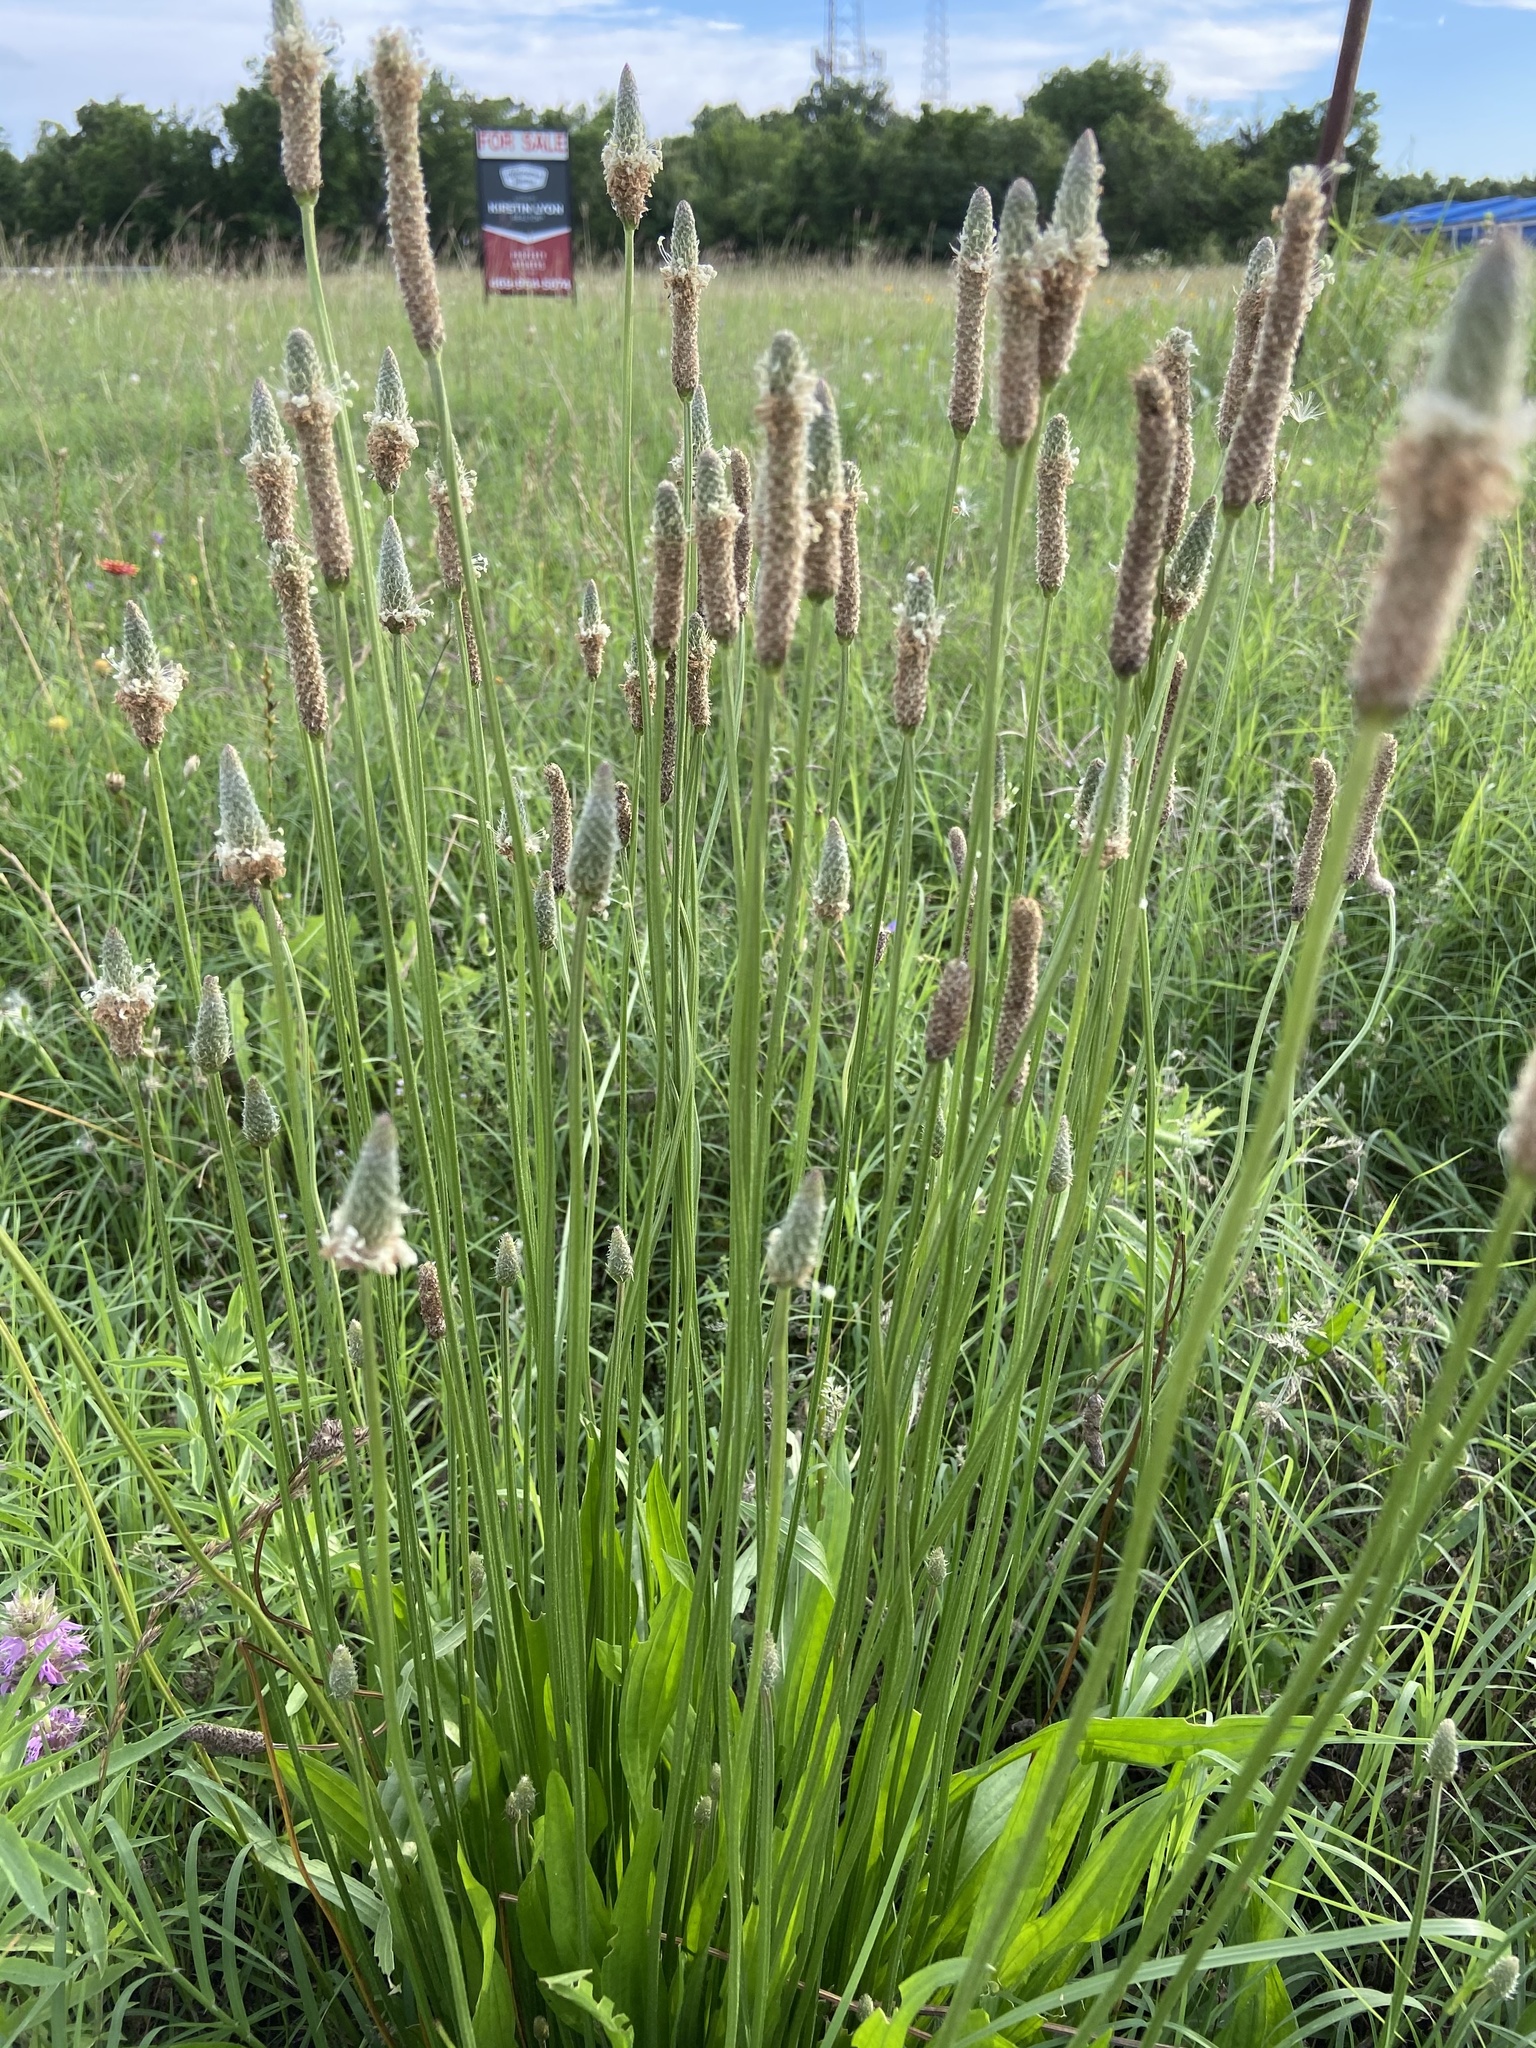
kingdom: Plantae
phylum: Tracheophyta
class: Magnoliopsida
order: Lamiales
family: Plantaginaceae
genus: Plantago
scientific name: Plantago lanceolata
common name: Ribwort plantain
